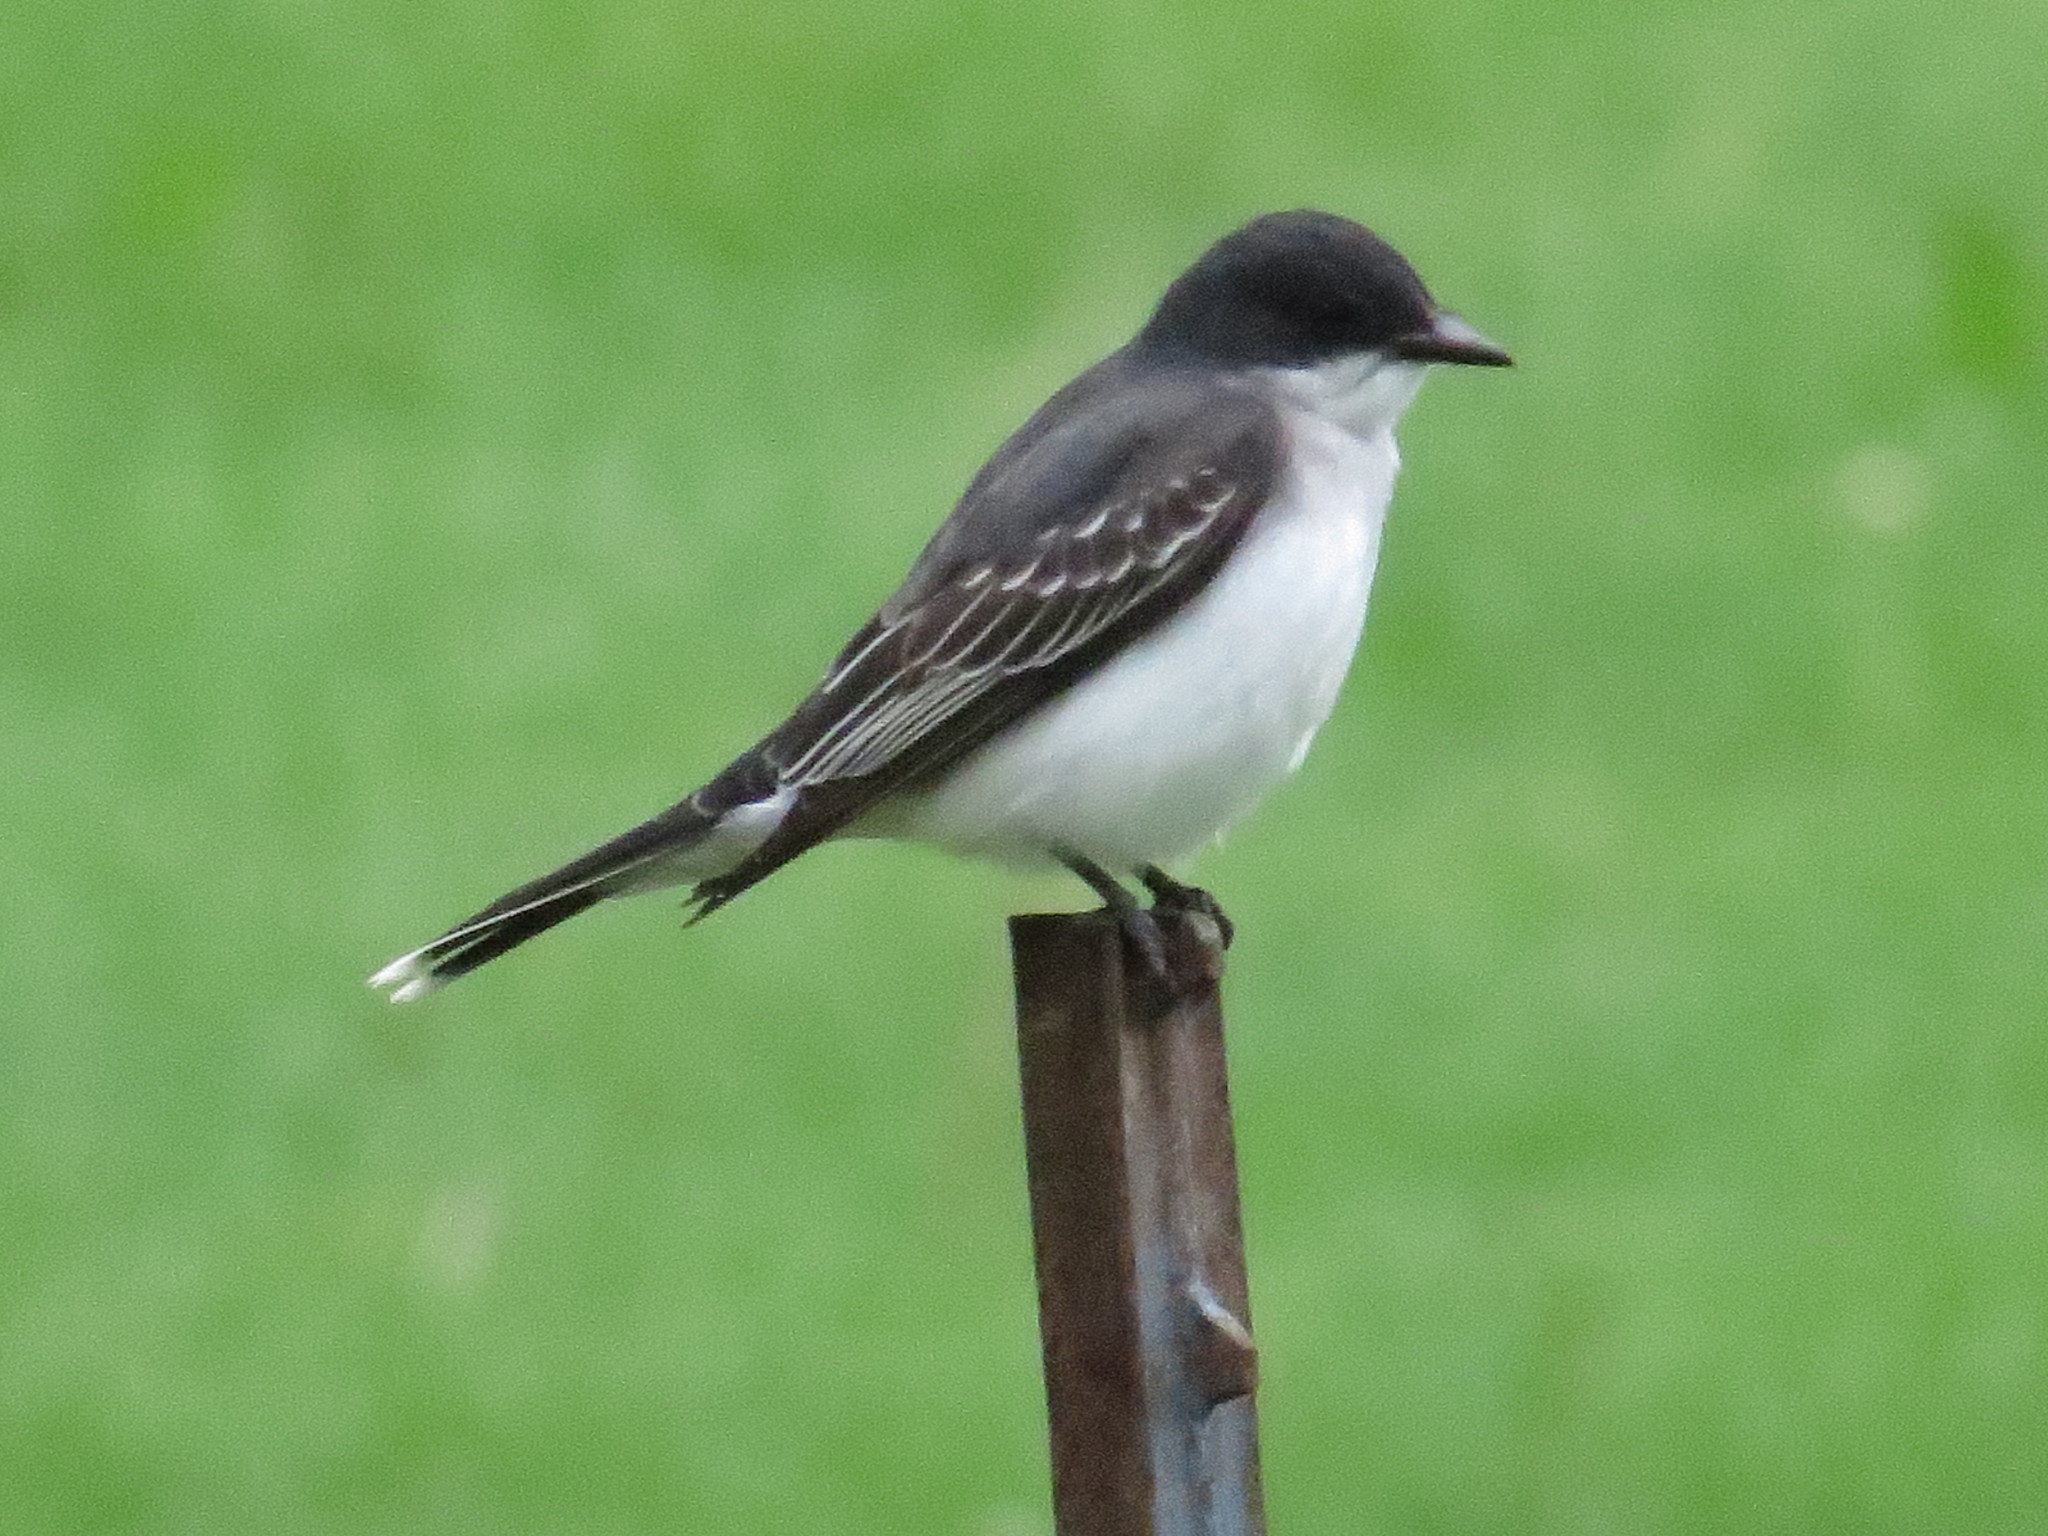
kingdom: Animalia
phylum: Chordata
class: Aves
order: Passeriformes
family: Tyrannidae
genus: Tyrannus
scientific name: Tyrannus tyrannus
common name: Eastern kingbird
